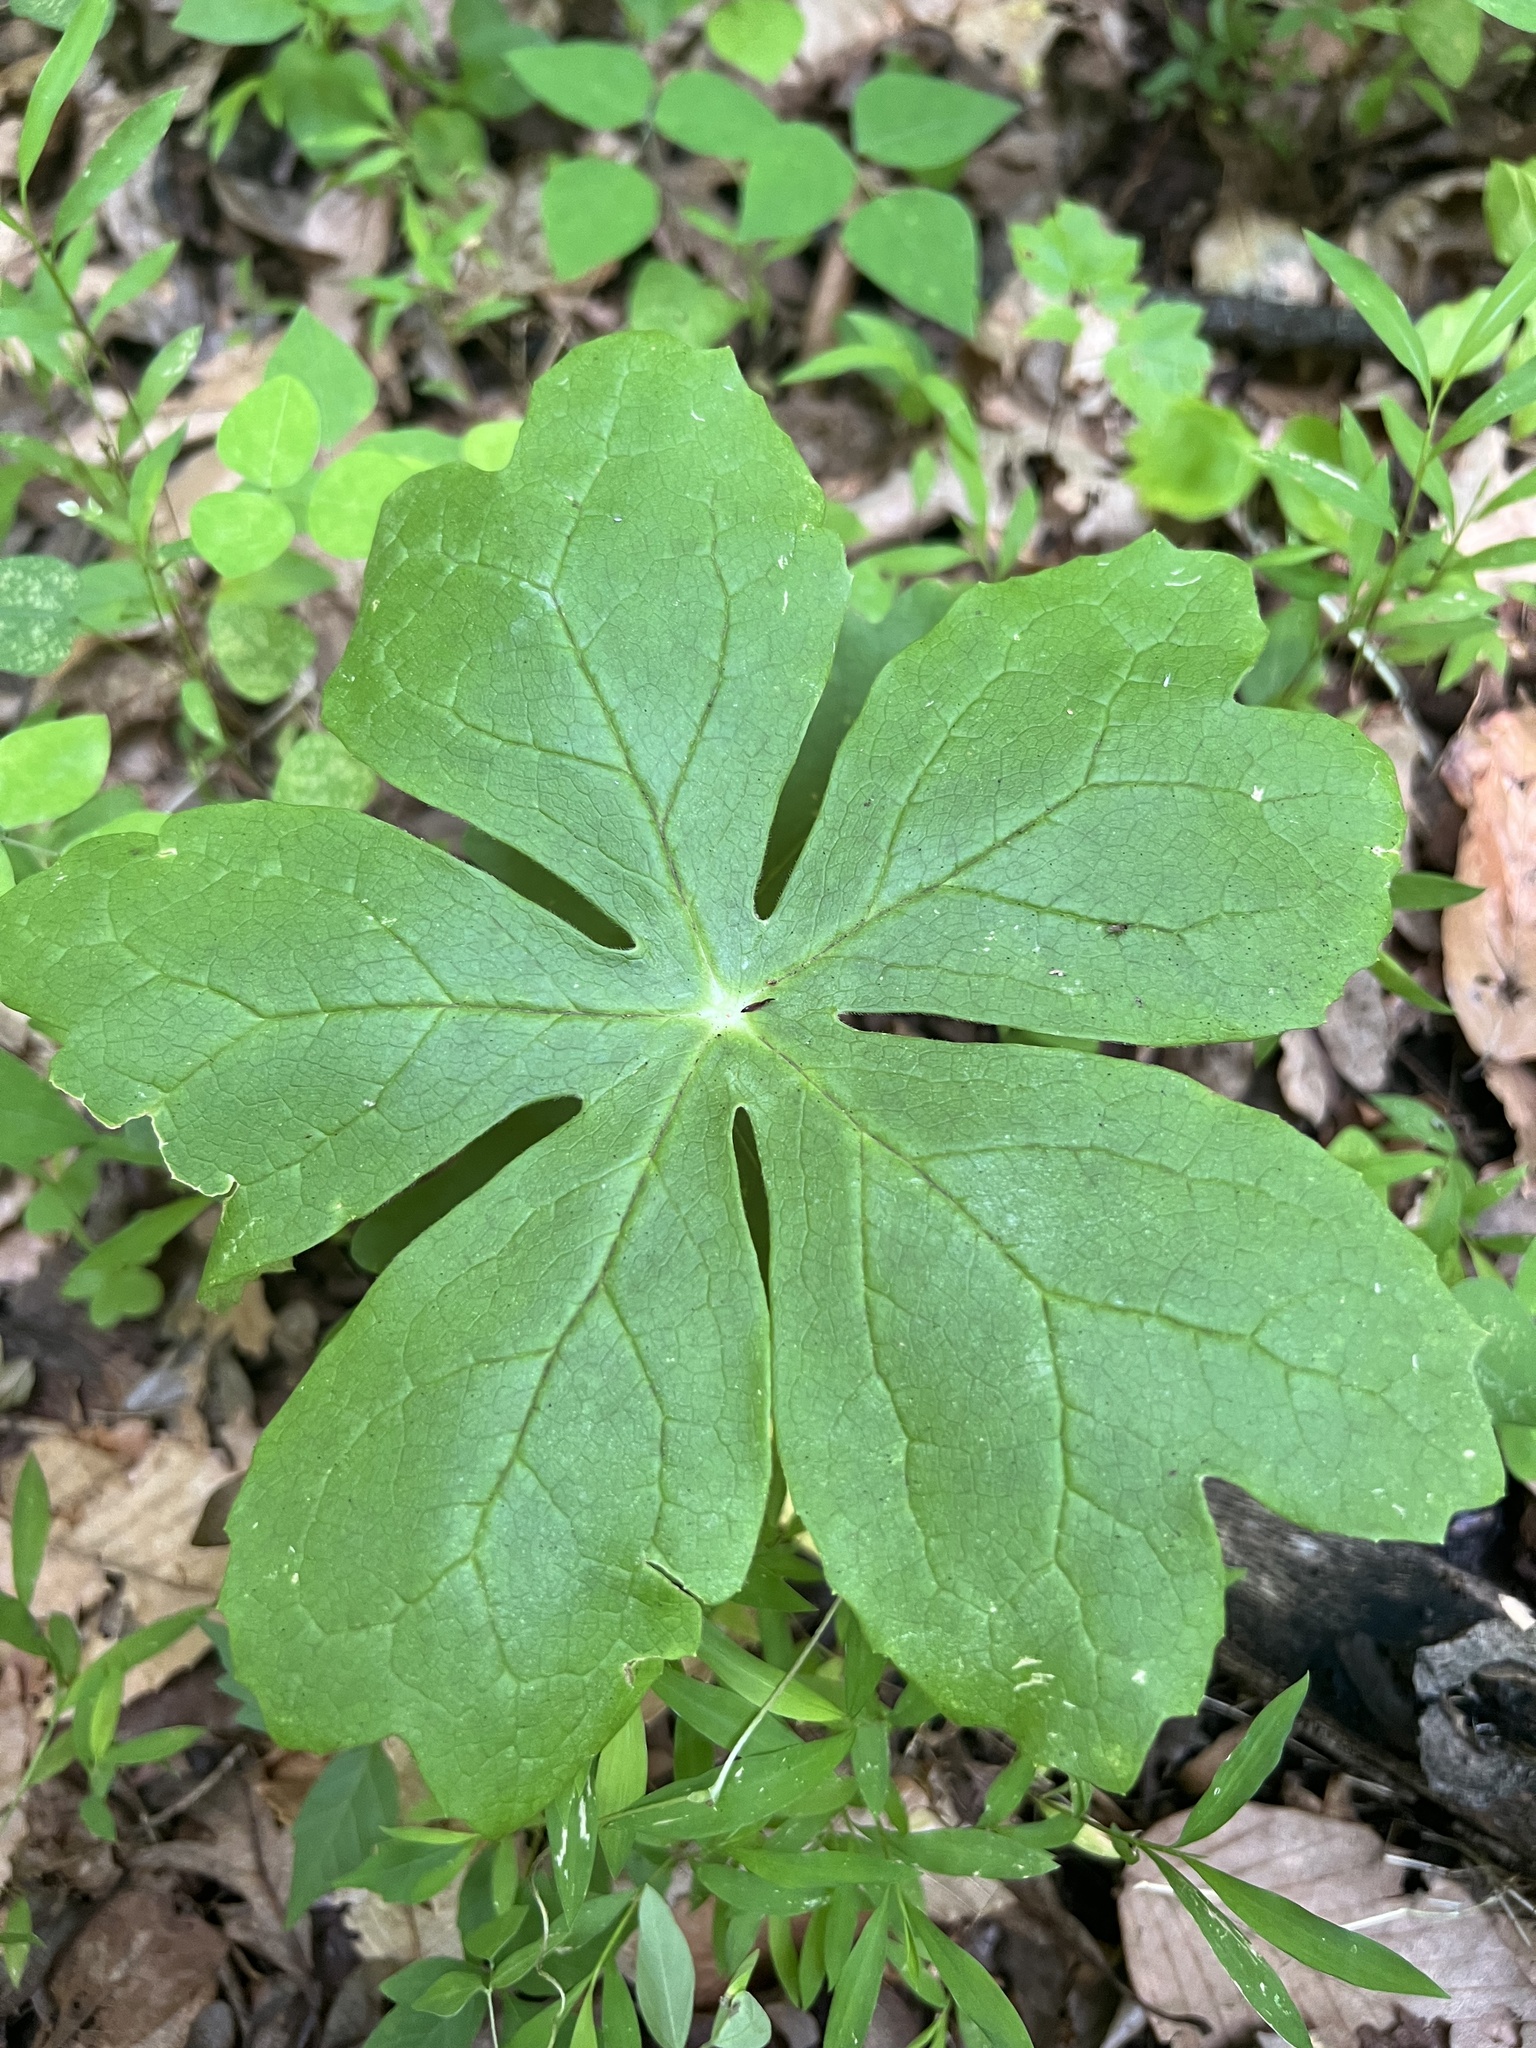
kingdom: Plantae
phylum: Tracheophyta
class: Magnoliopsida
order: Ranunculales
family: Berberidaceae
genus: Podophyllum
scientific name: Podophyllum peltatum
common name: Wild mandrake
